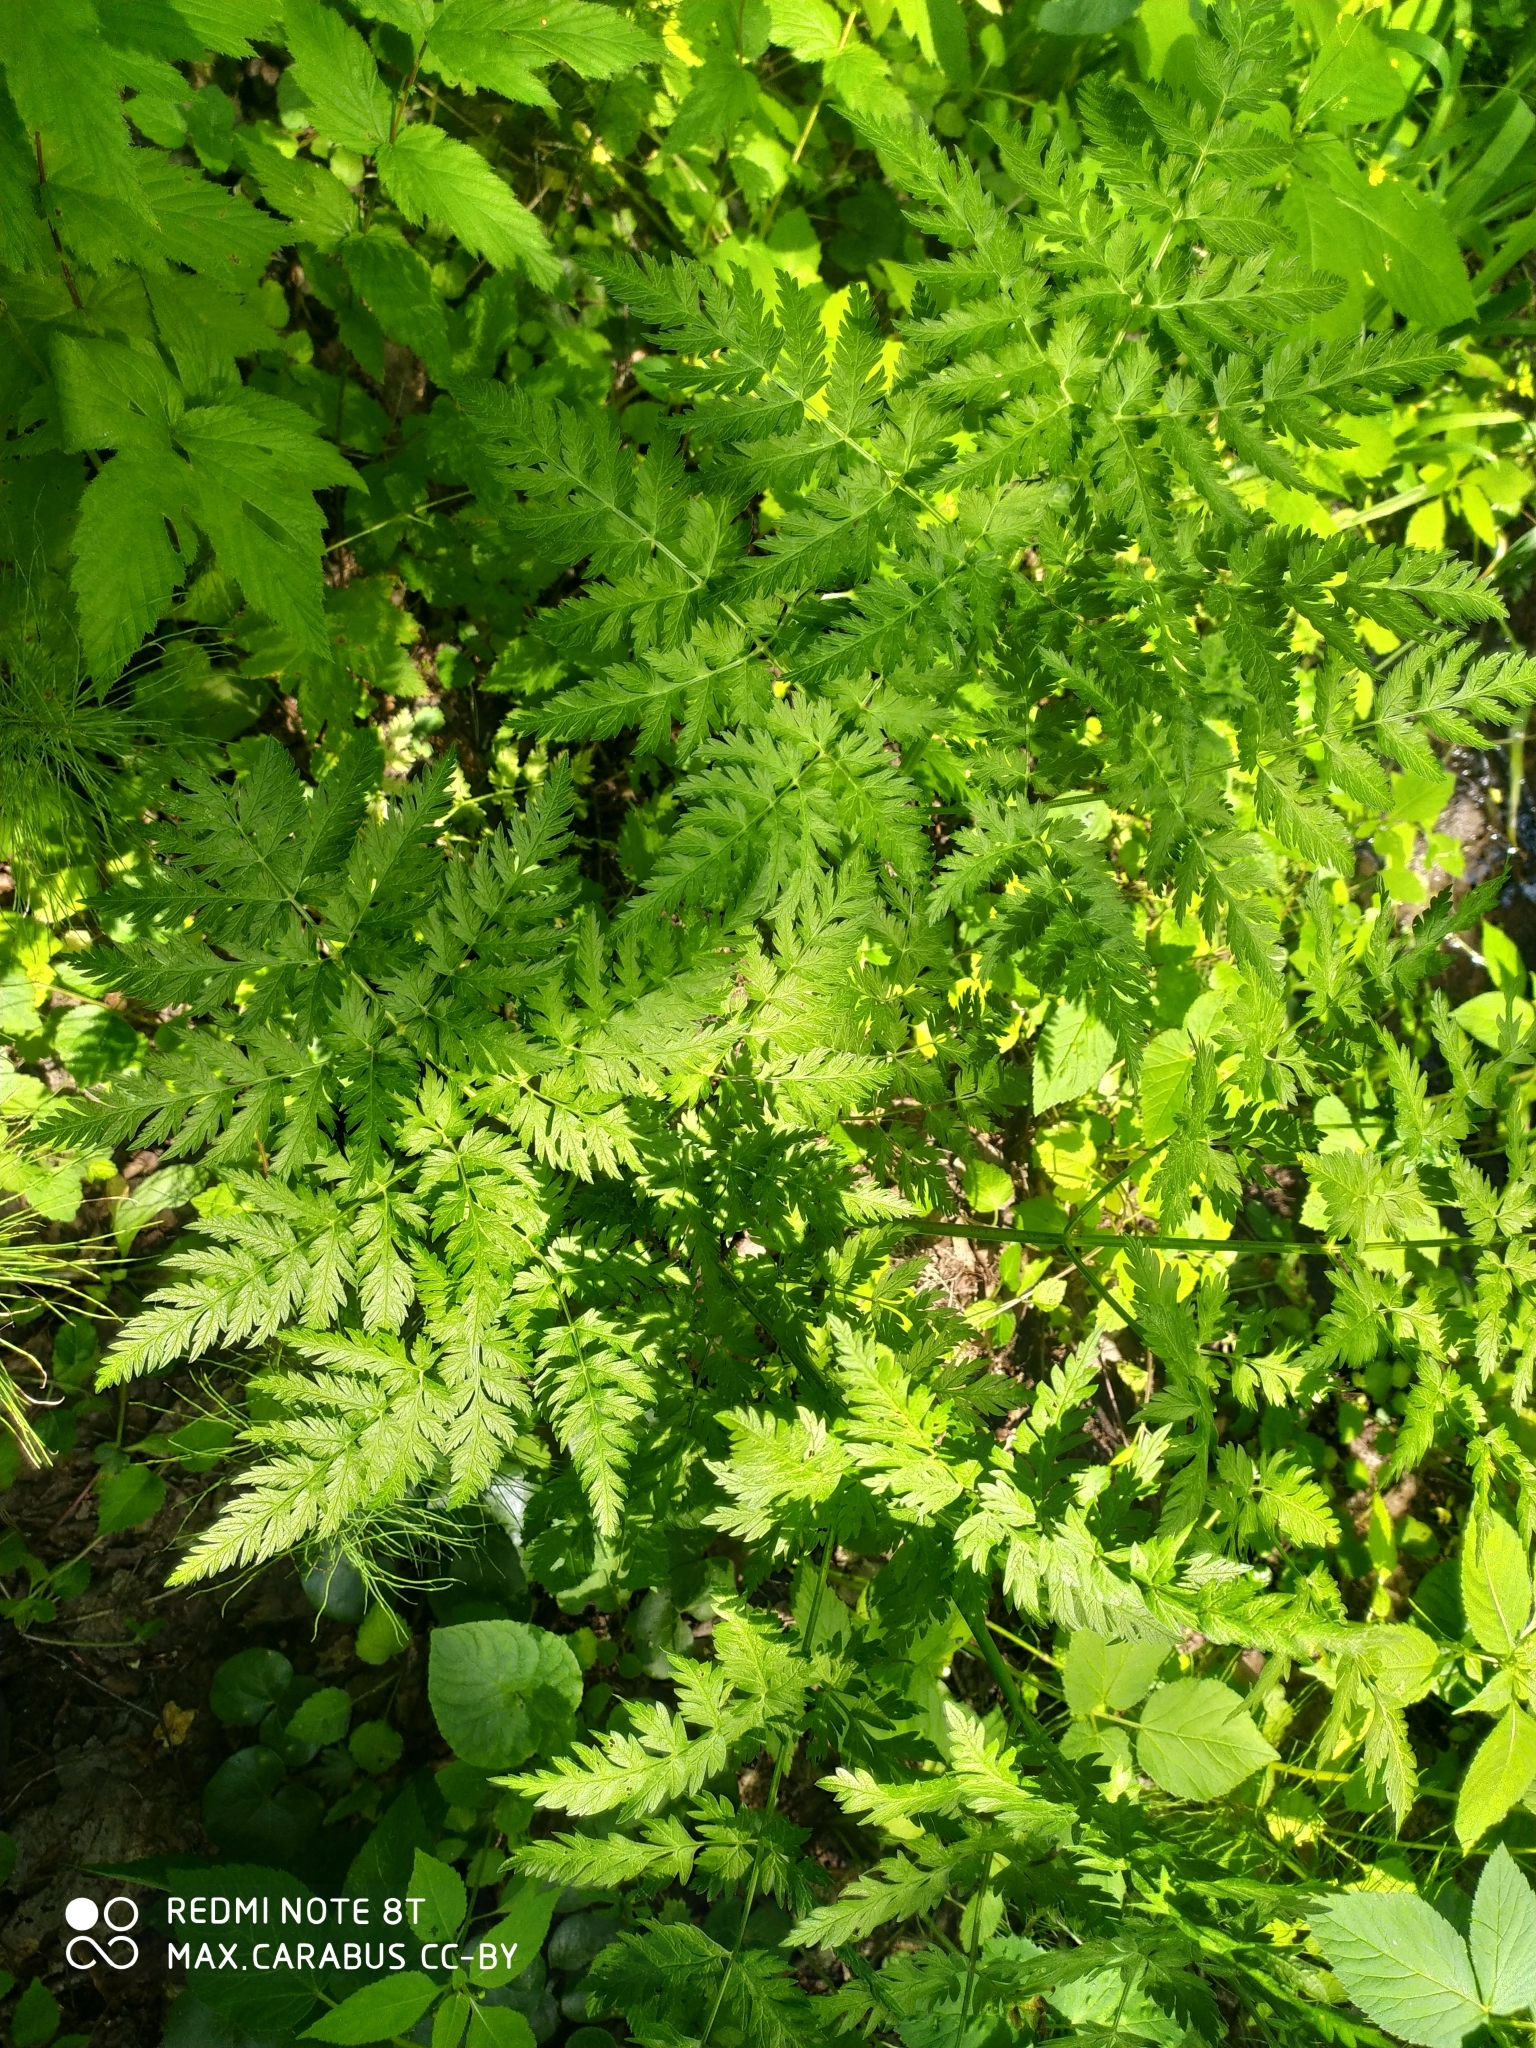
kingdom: Plantae
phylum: Tracheophyta
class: Magnoliopsida
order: Apiales
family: Apiaceae
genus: Anthriscus
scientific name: Anthriscus sylvestris
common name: Cow parsley
